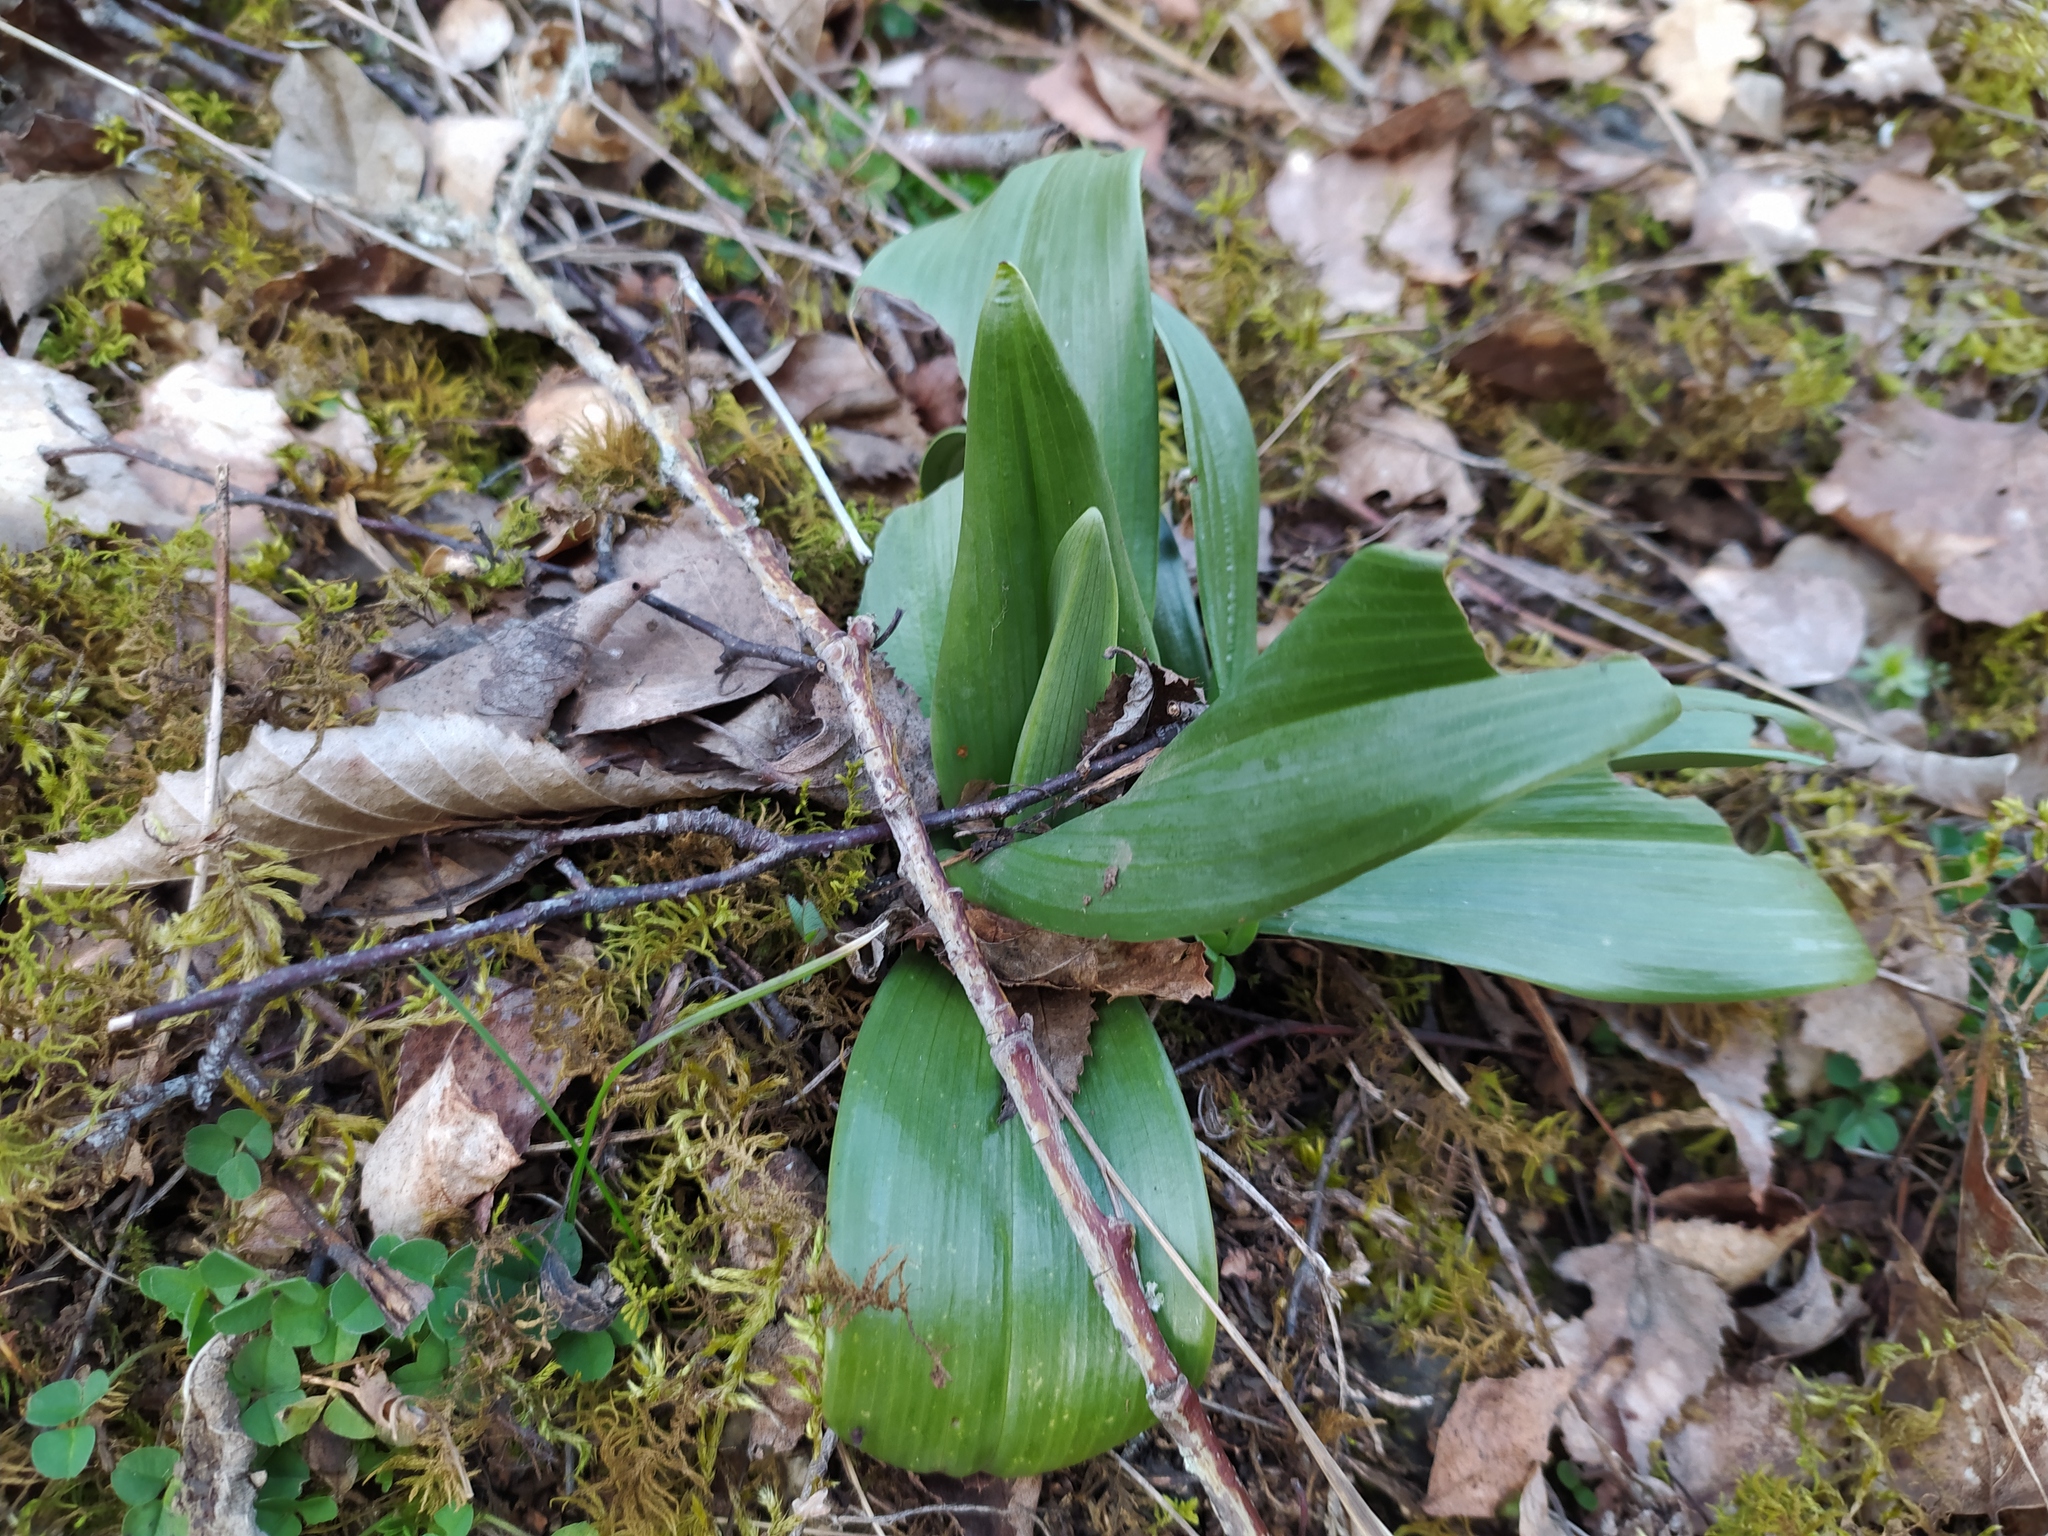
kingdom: Plantae
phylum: Tracheophyta
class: Liliopsida
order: Asparagales
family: Orchidaceae
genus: Himantoglossum
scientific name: Himantoglossum hircinum
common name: Lizard orchid
